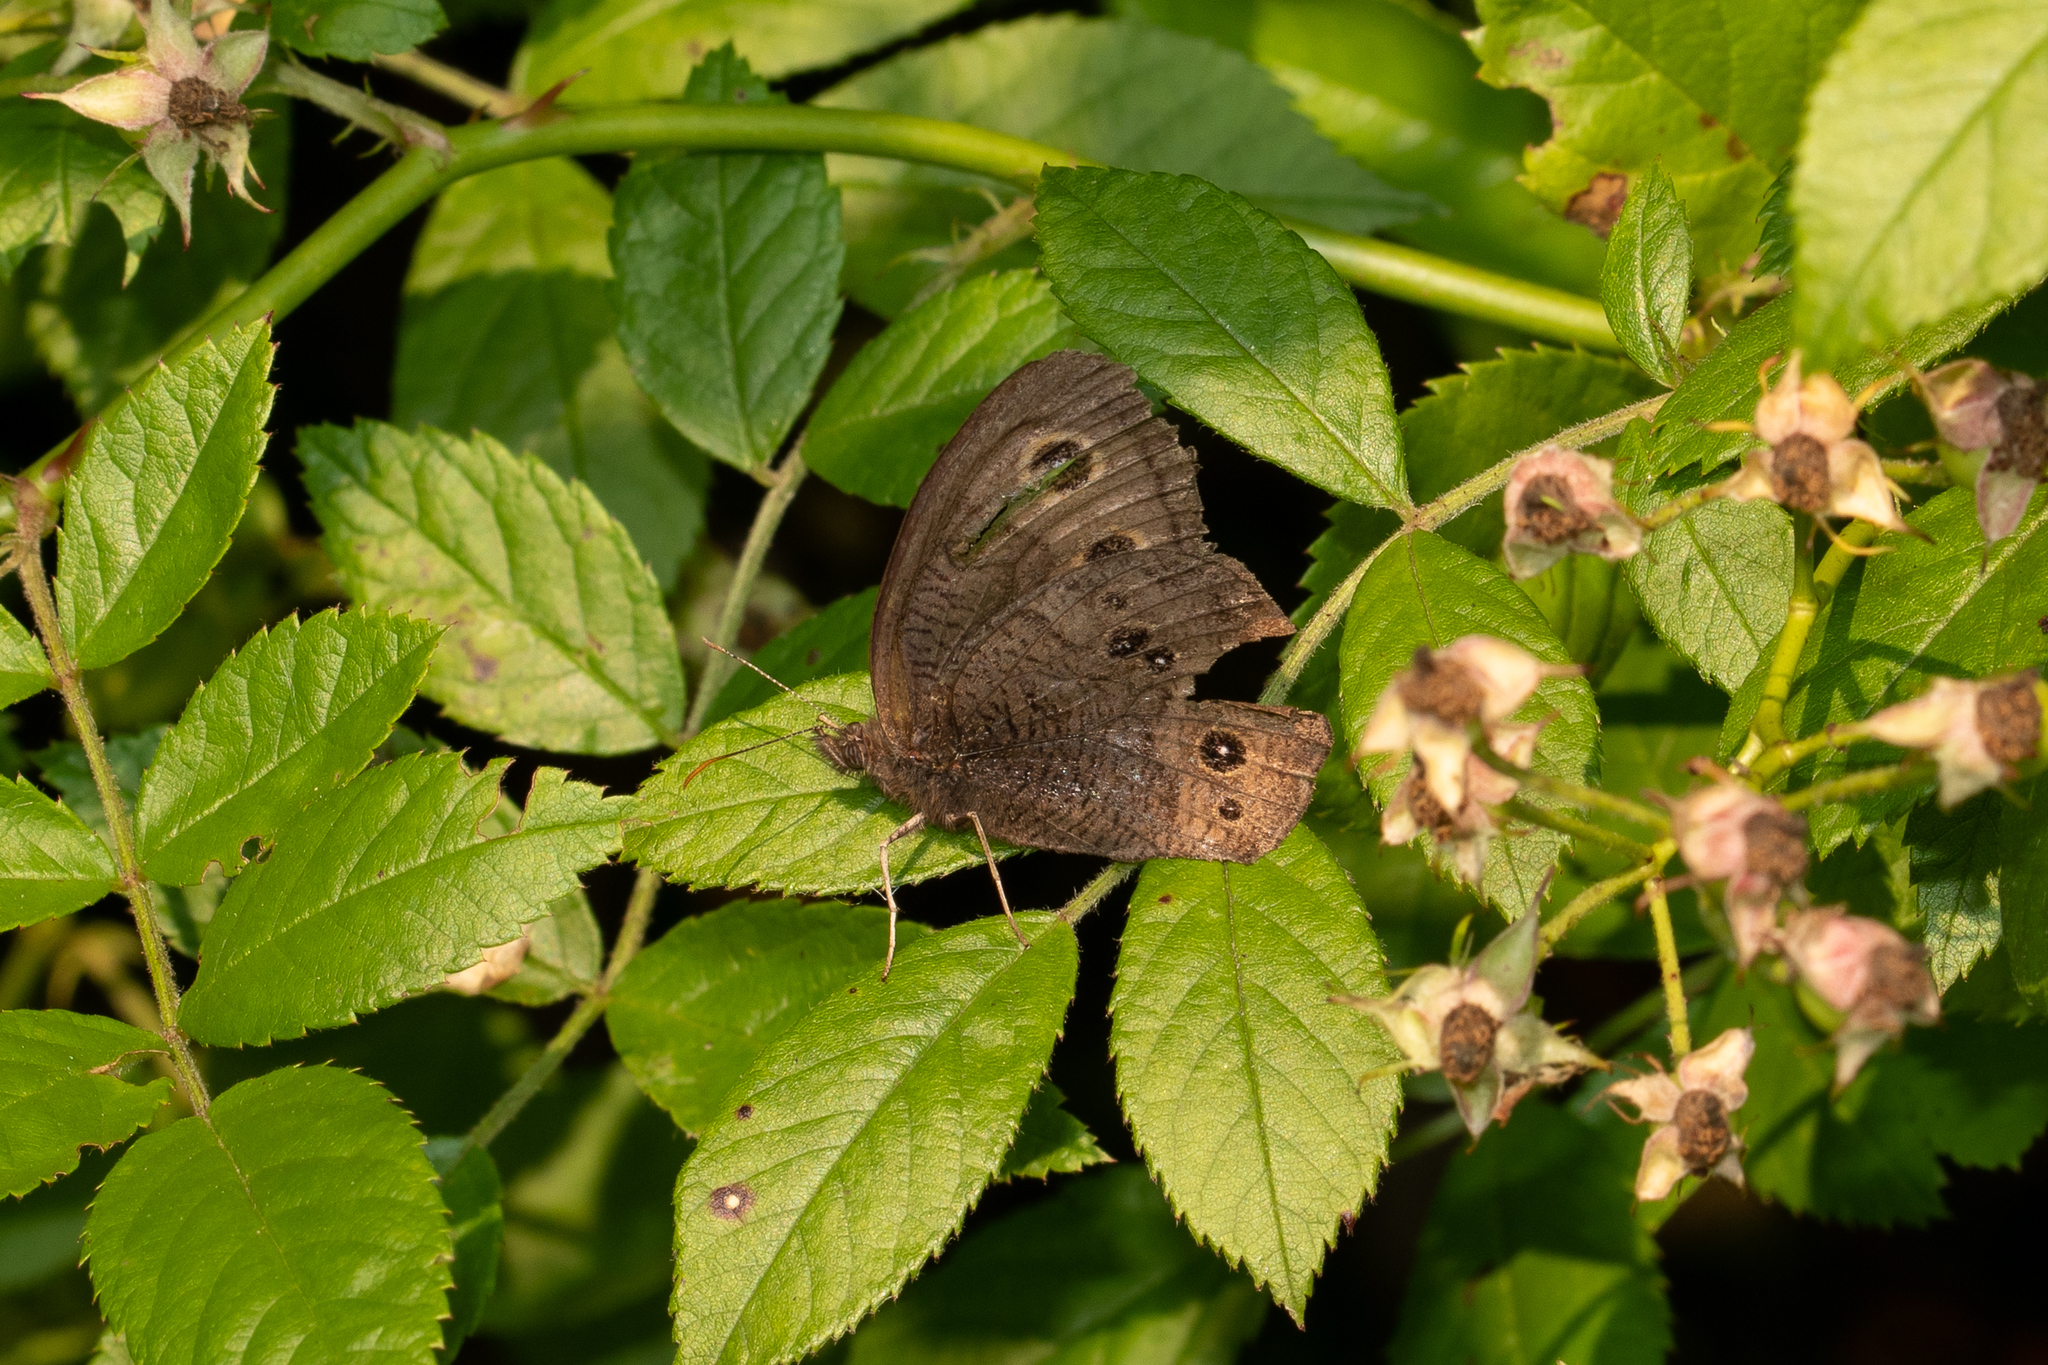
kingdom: Animalia
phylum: Arthropoda
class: Insecta
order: Lepidoptera
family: Nymphalidae
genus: Cercyonis
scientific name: Cercyonis pegala
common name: Common wood-nymph
